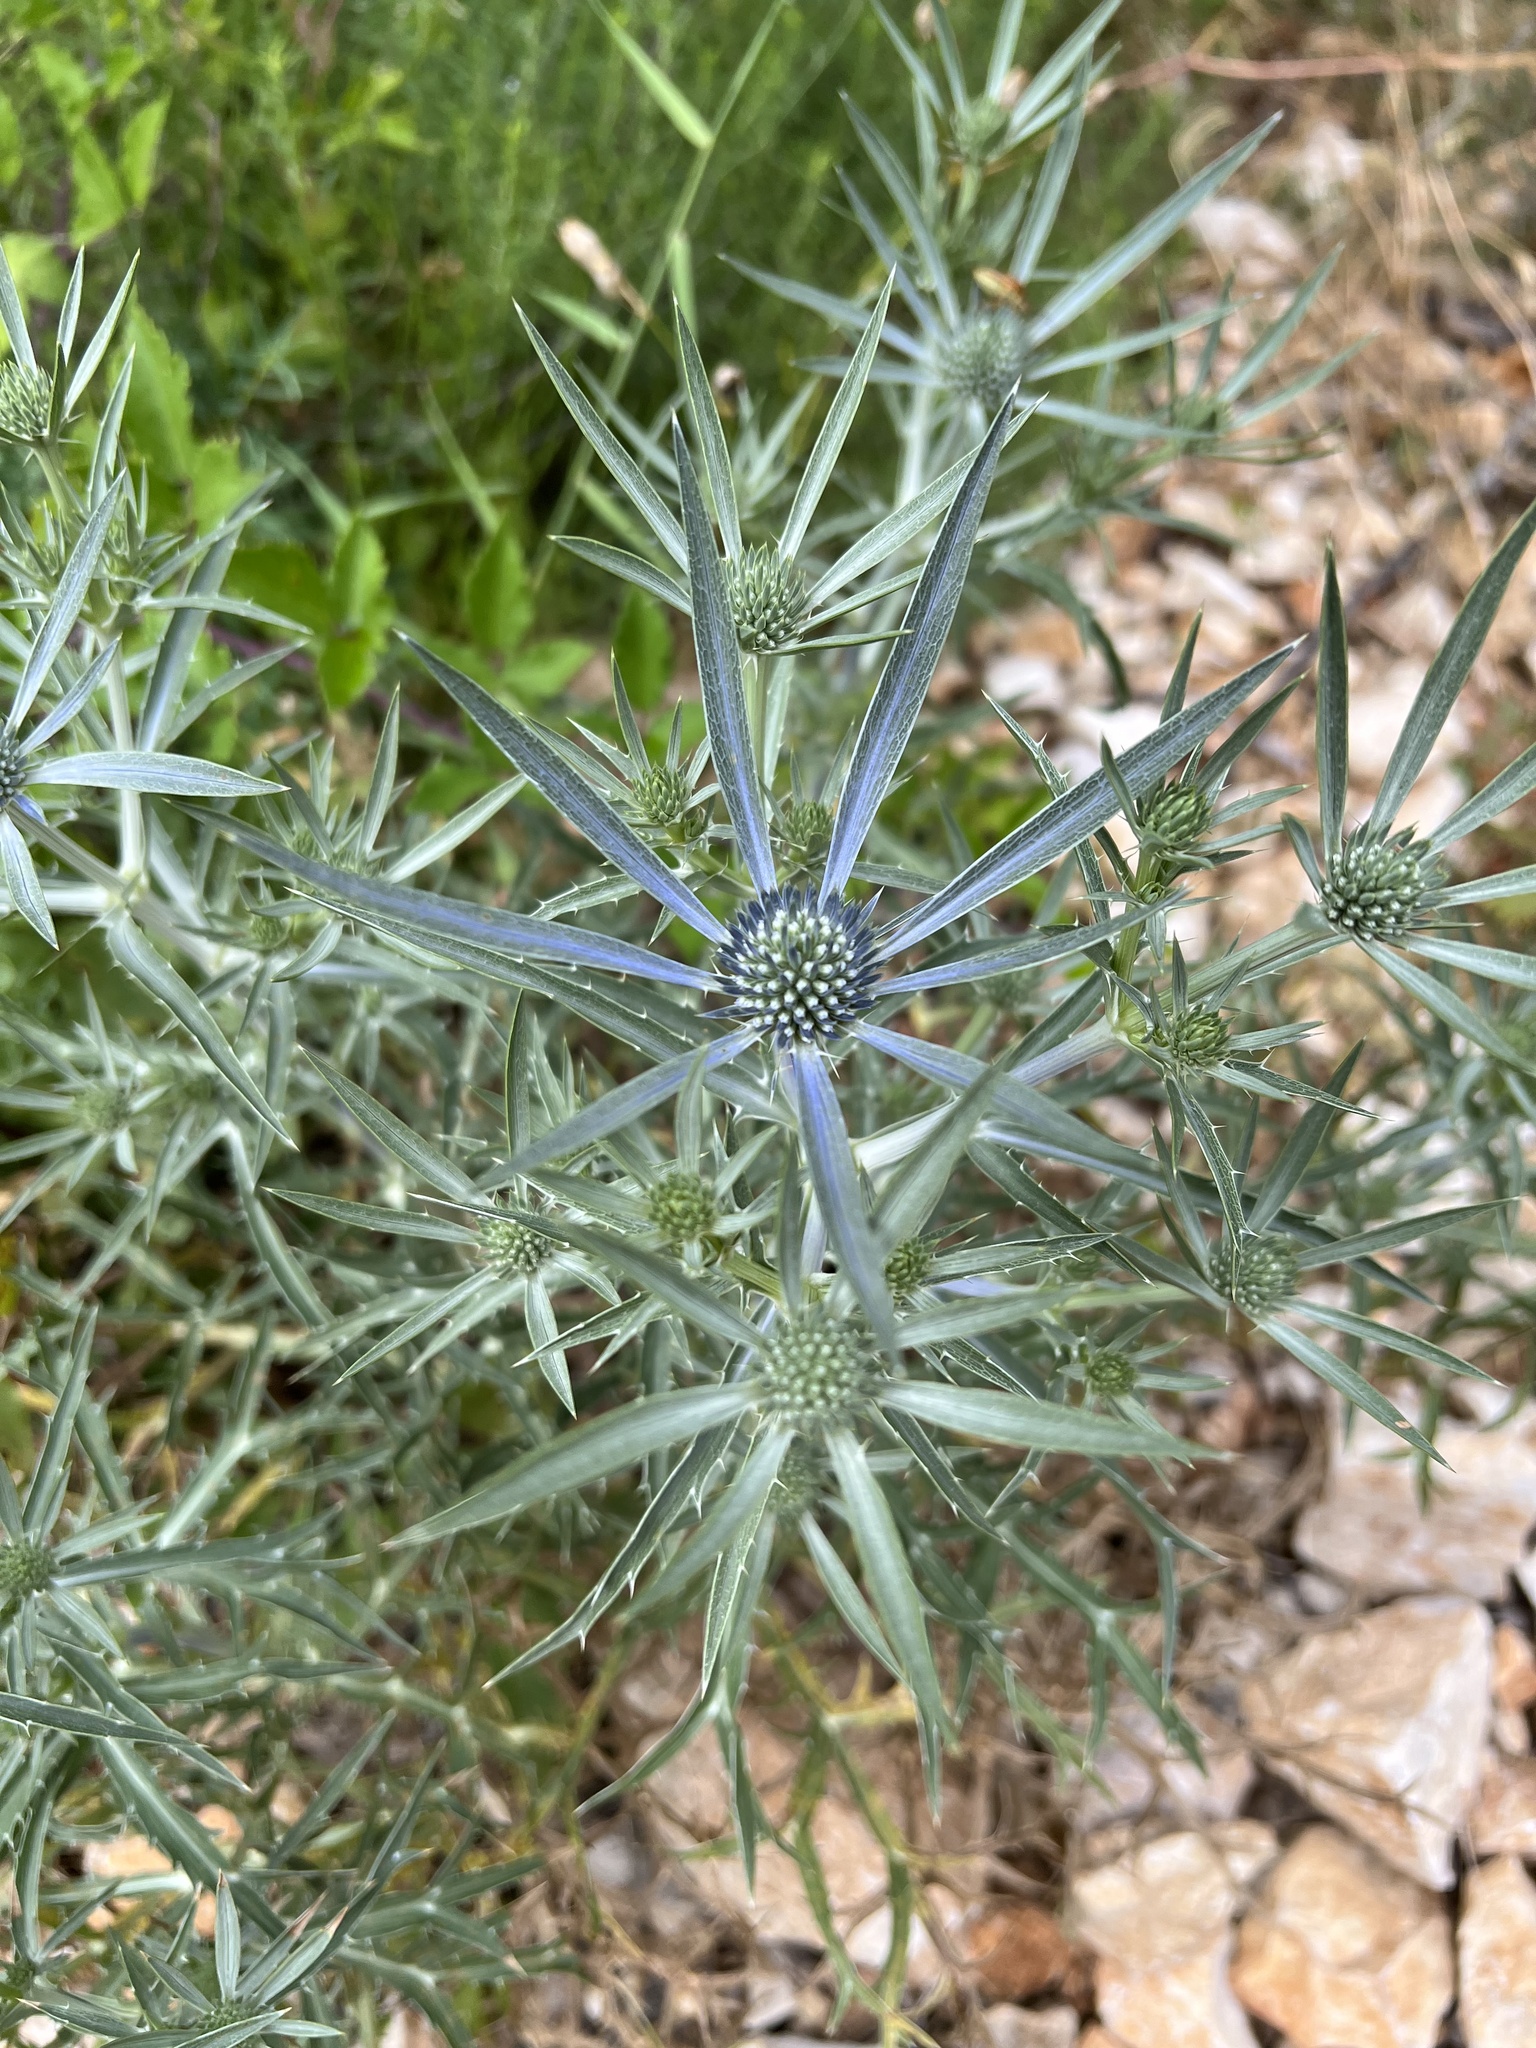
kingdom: Plantae
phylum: Tracheophyta
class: Magnoliopsida
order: Apiales
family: Apiaceae
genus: Eryngium
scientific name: Eryngium amethystinum
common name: Amethyst eryngo
